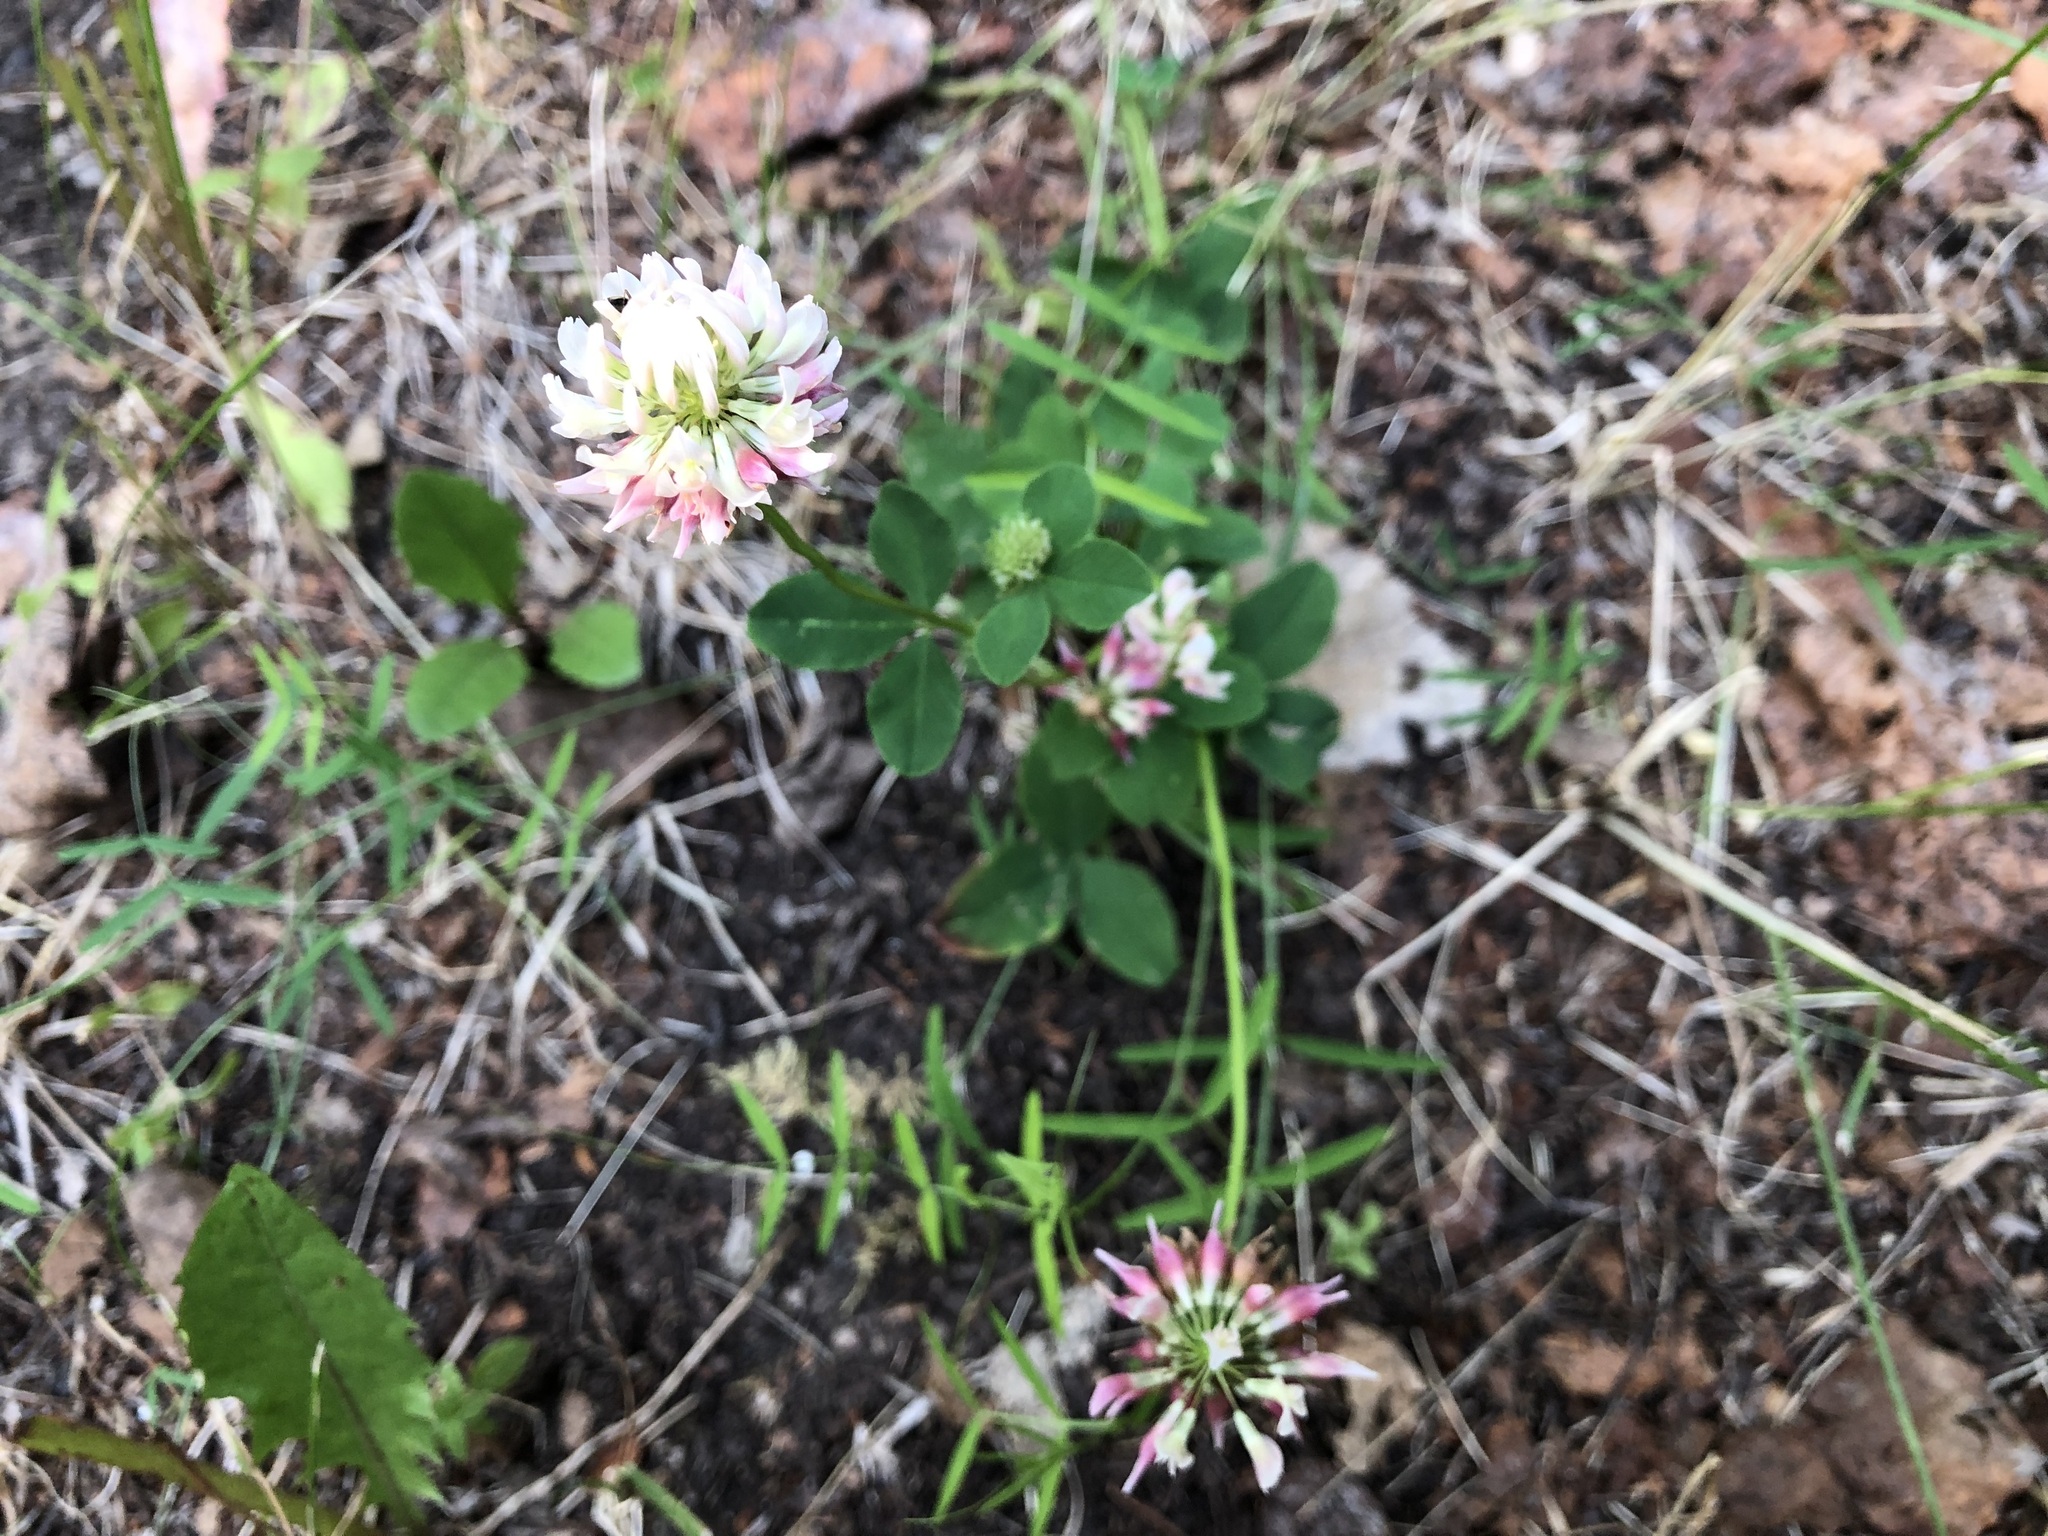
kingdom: Plantae
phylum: Tracheophyta
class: Magnoliopsida
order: Fabales
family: Fabaceae
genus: Trifolium
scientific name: Trifolium hybridum
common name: Alsike clover
